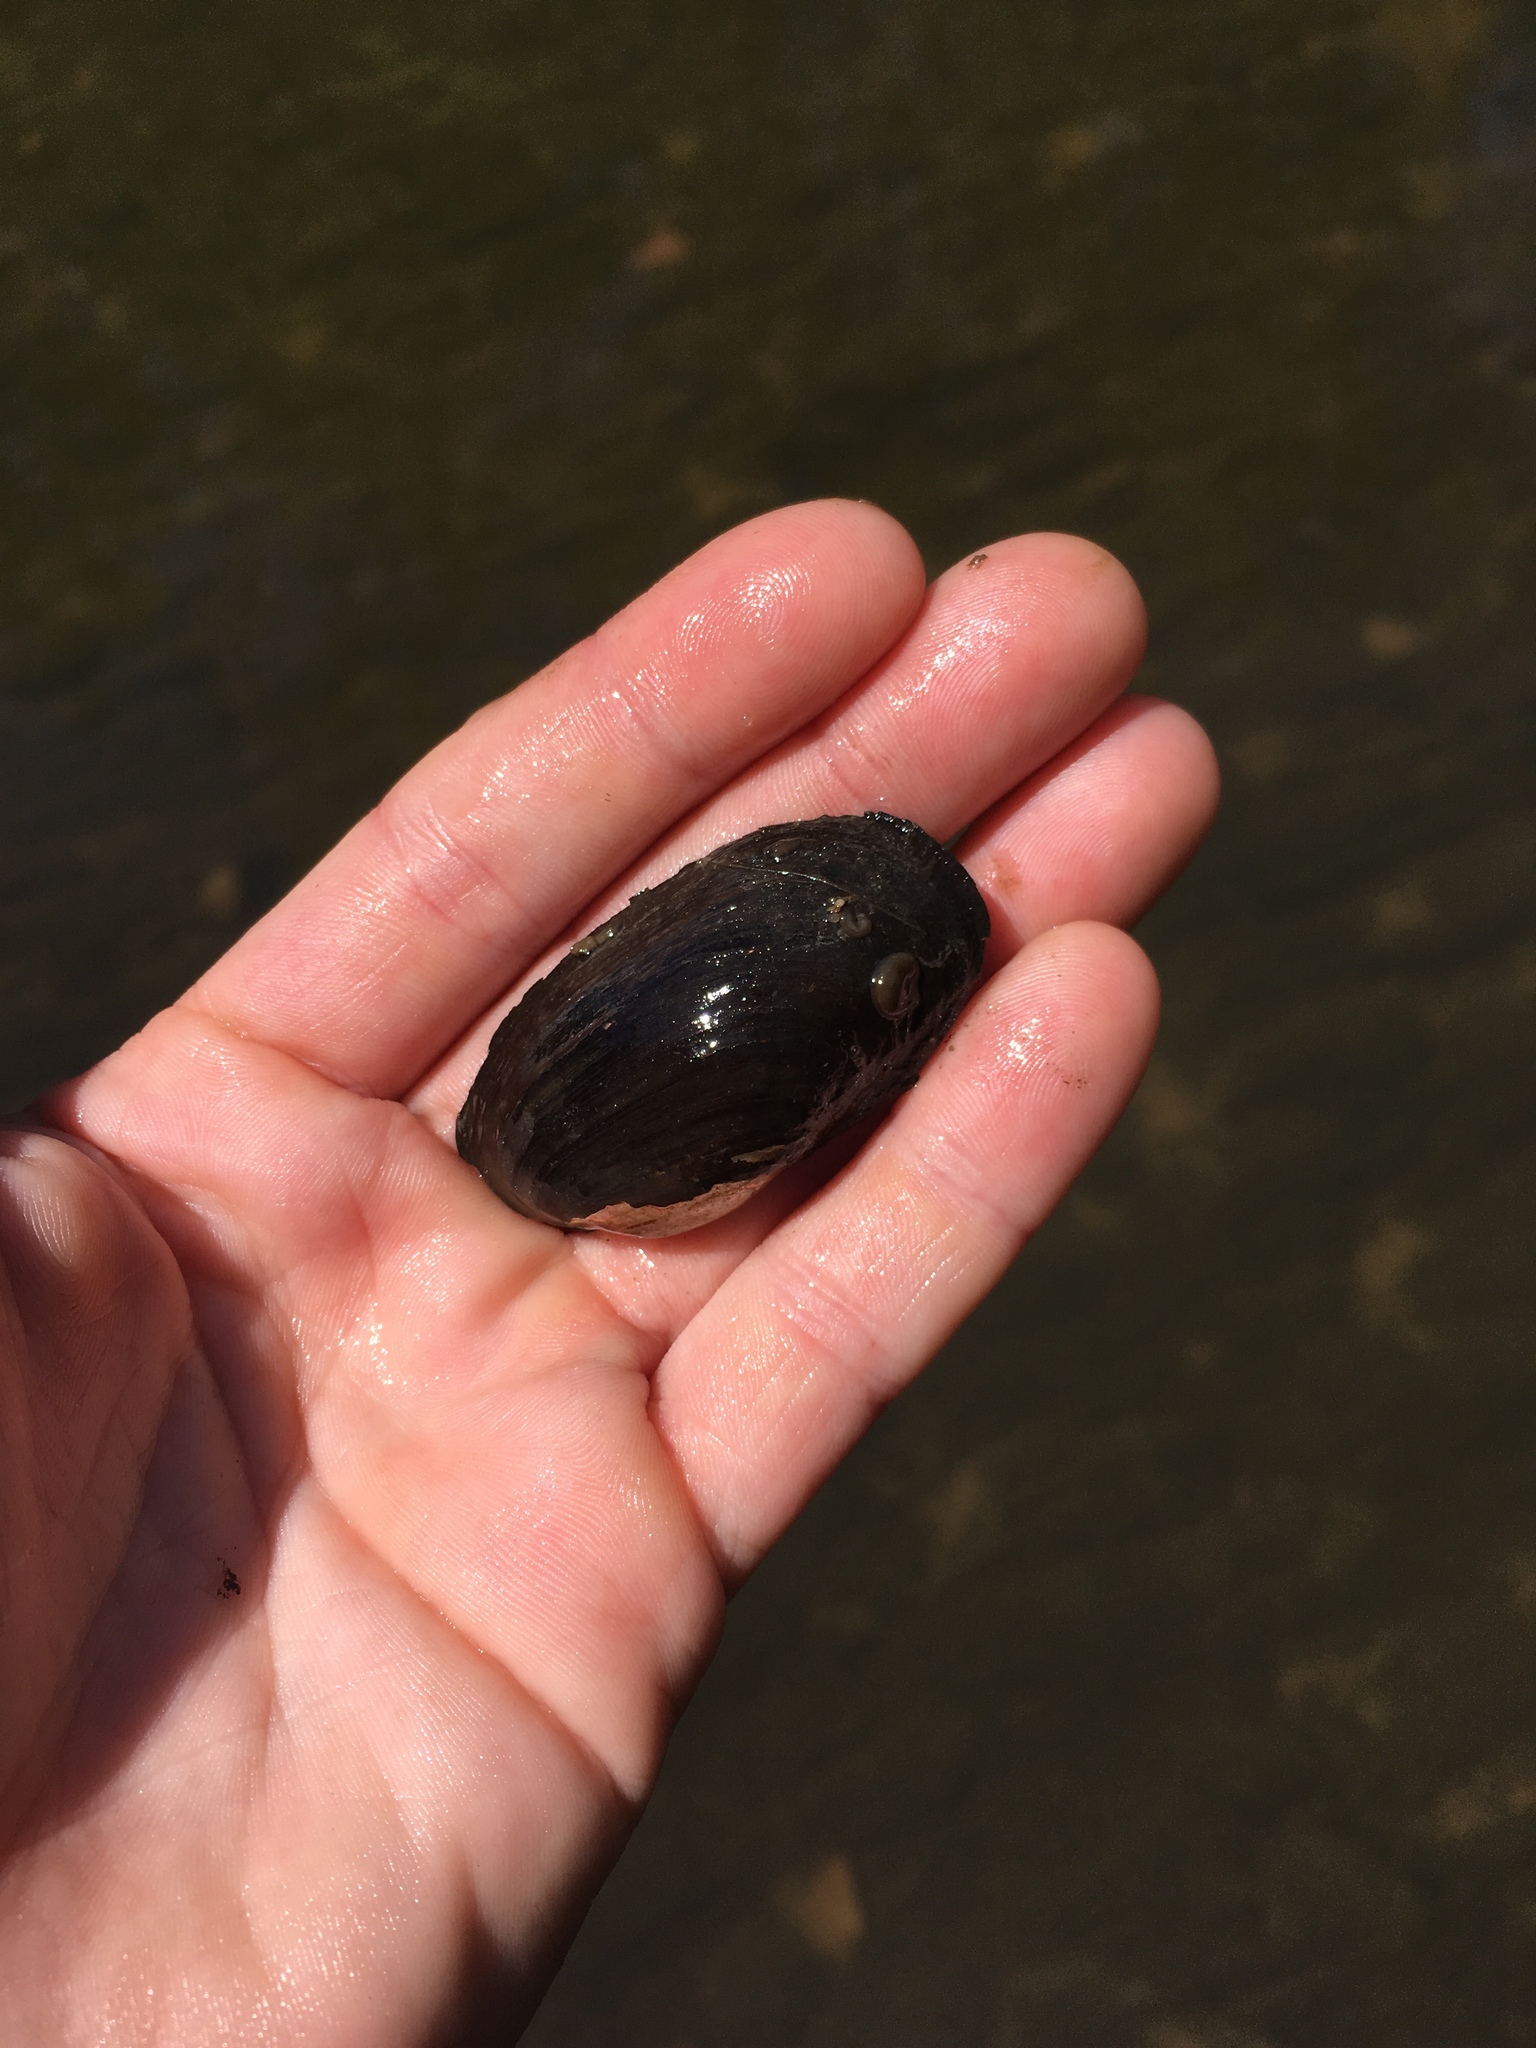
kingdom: Animalia
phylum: Mollusca
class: Bivalvia
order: Unionida
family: Unionidae
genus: Toxolasma
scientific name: Toxolasma parvum
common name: Lilliput
